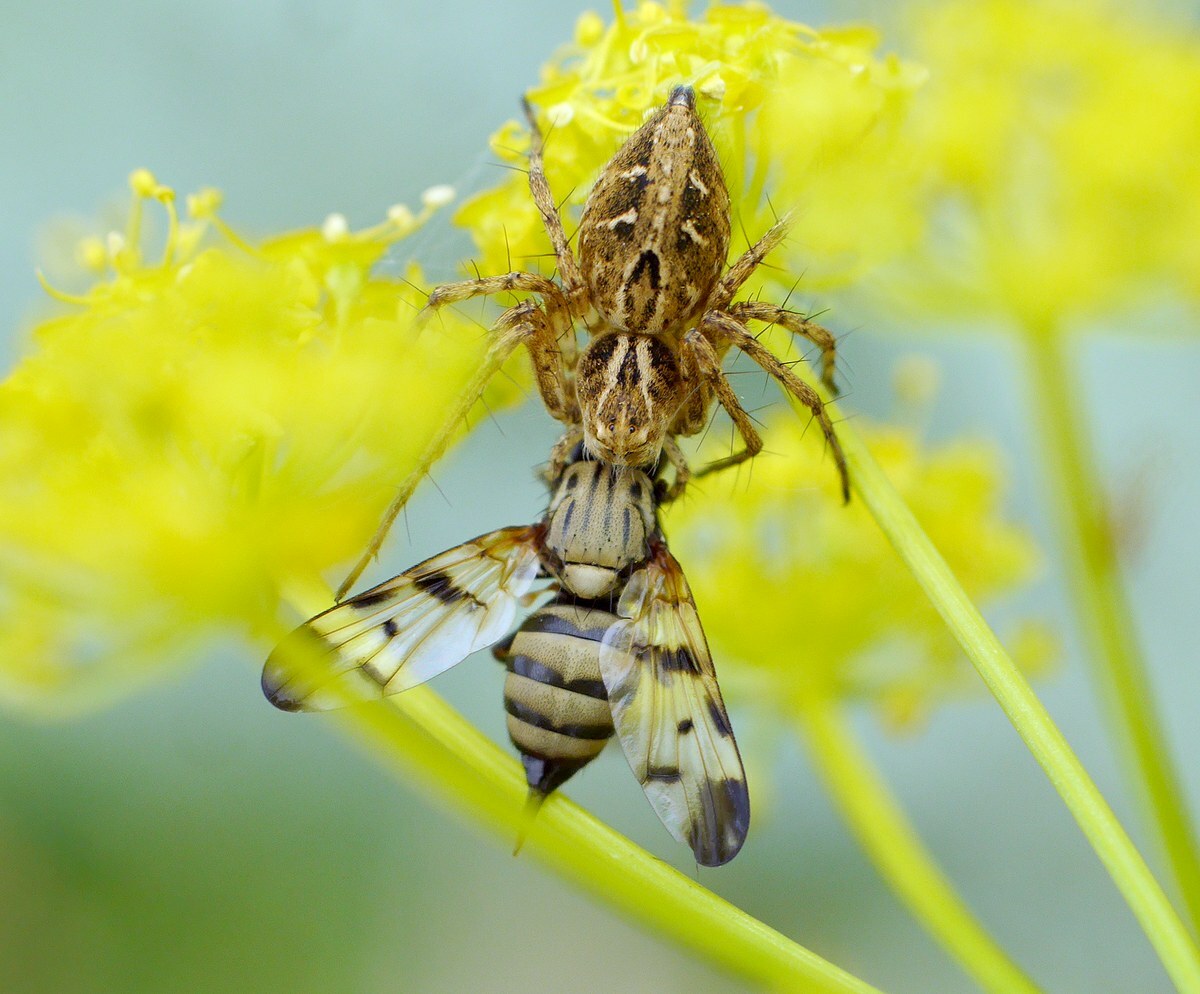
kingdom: Animalia
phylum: Arthropoda
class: Insecta
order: Diptera
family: Ulidiidae
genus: Otites
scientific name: Otites formosa
